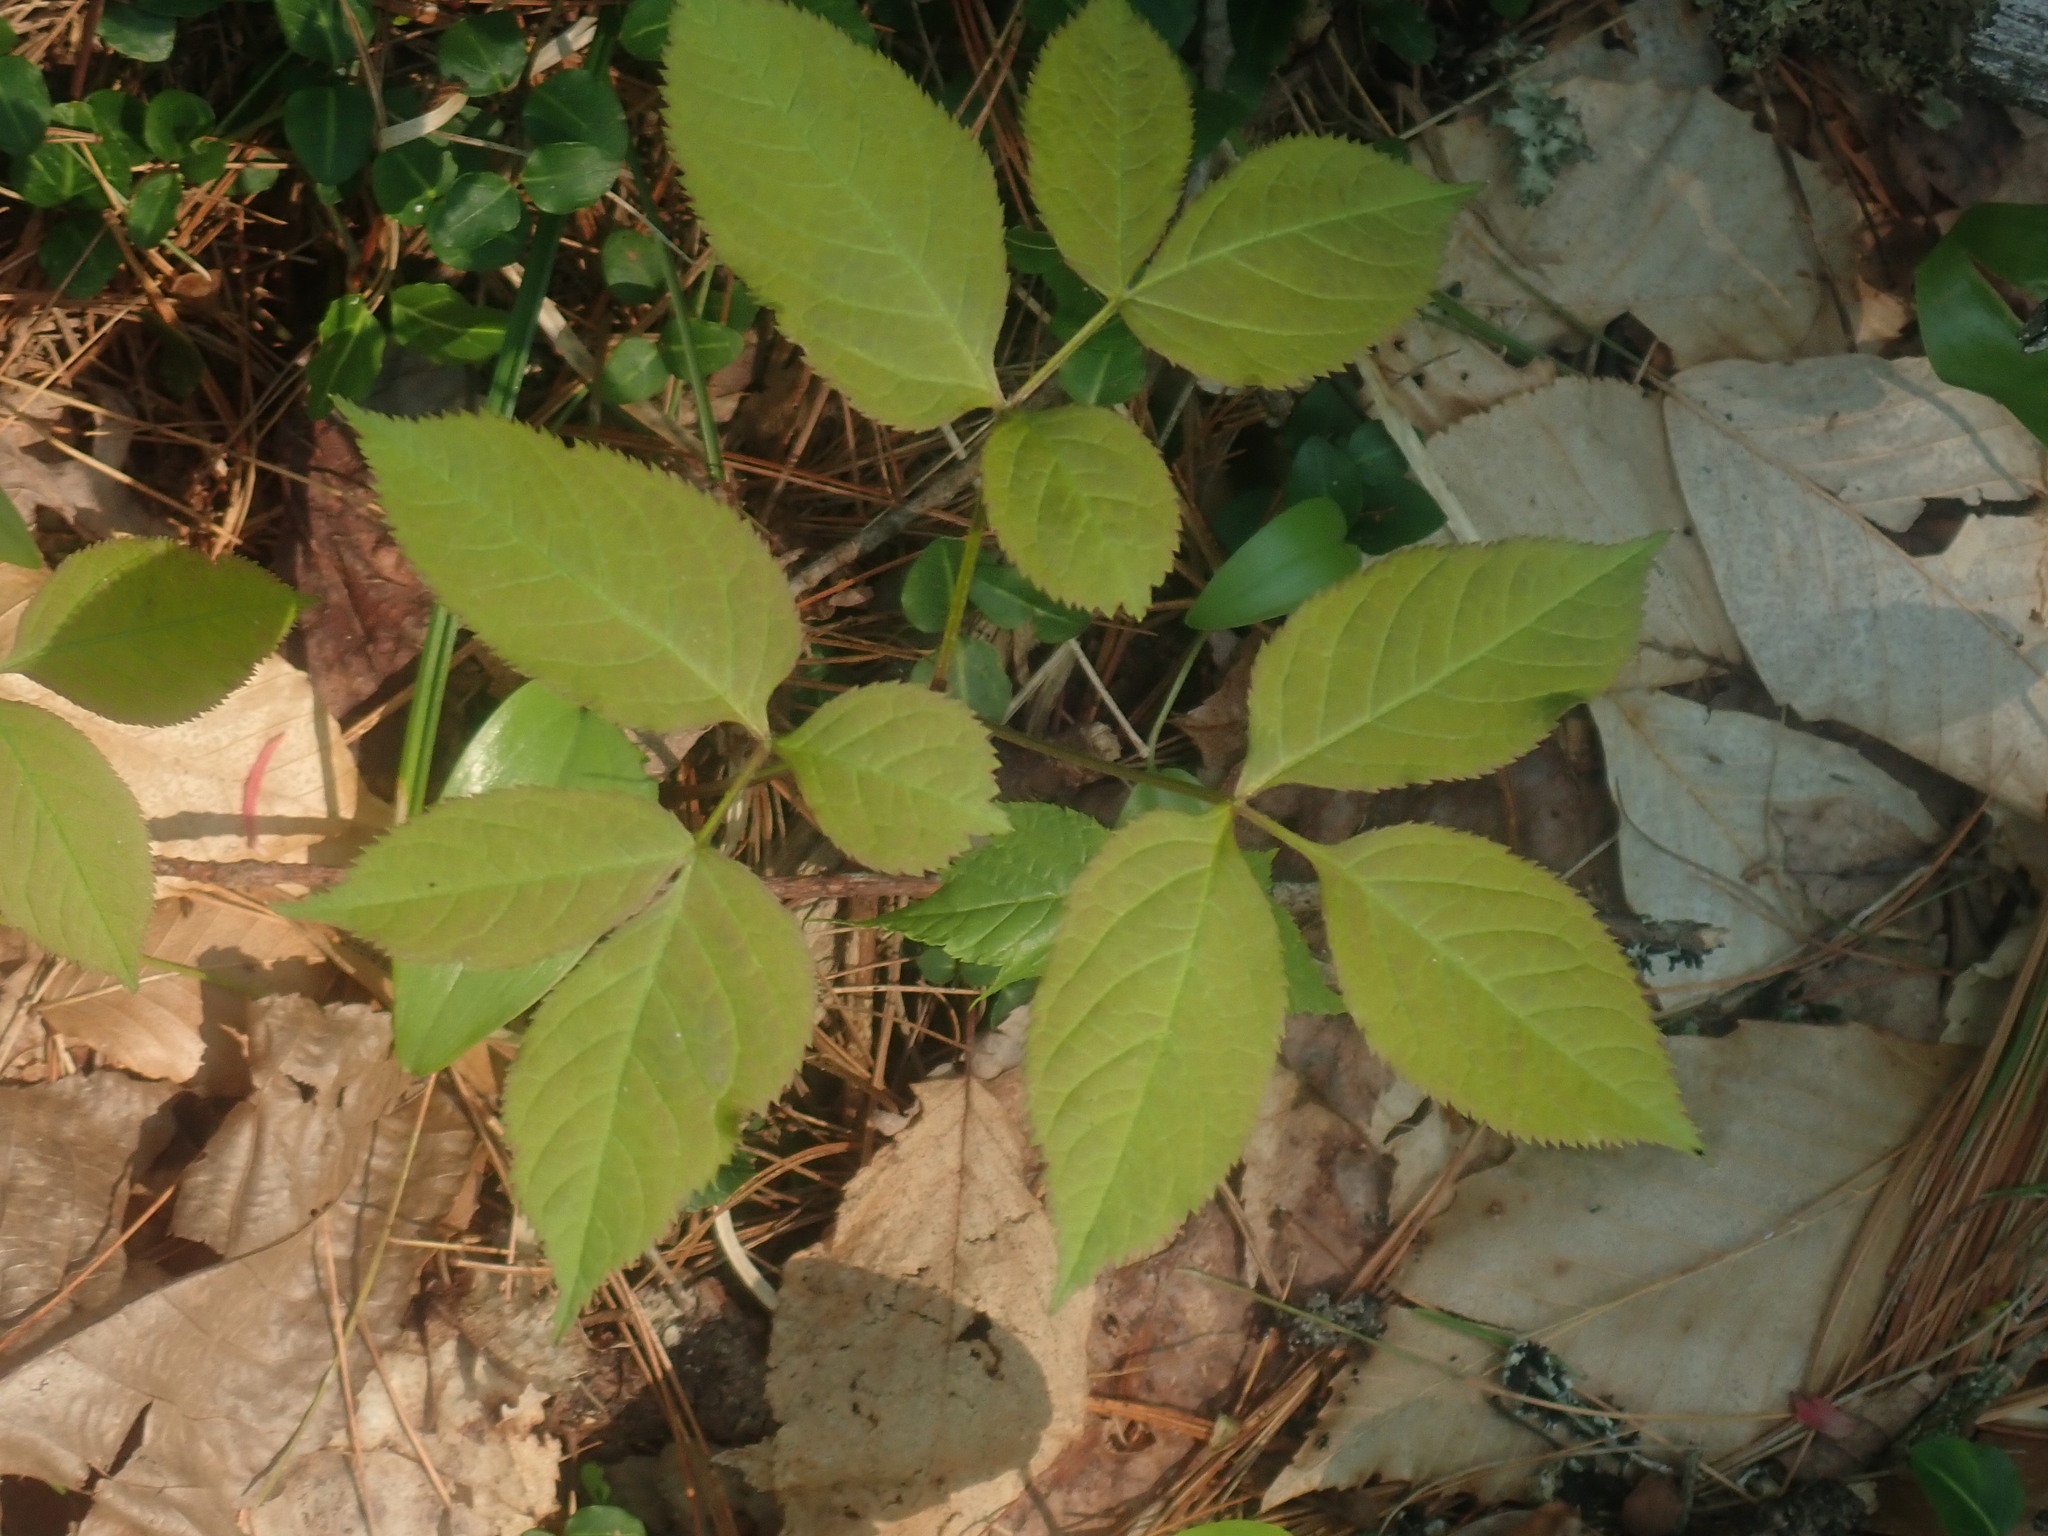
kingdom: Plantae
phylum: Tracheophyta
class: Magnoliopsida
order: Apiales
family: Araliaceae
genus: Aralia
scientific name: Aralia nudicaulis
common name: Wild sarsaparilla
